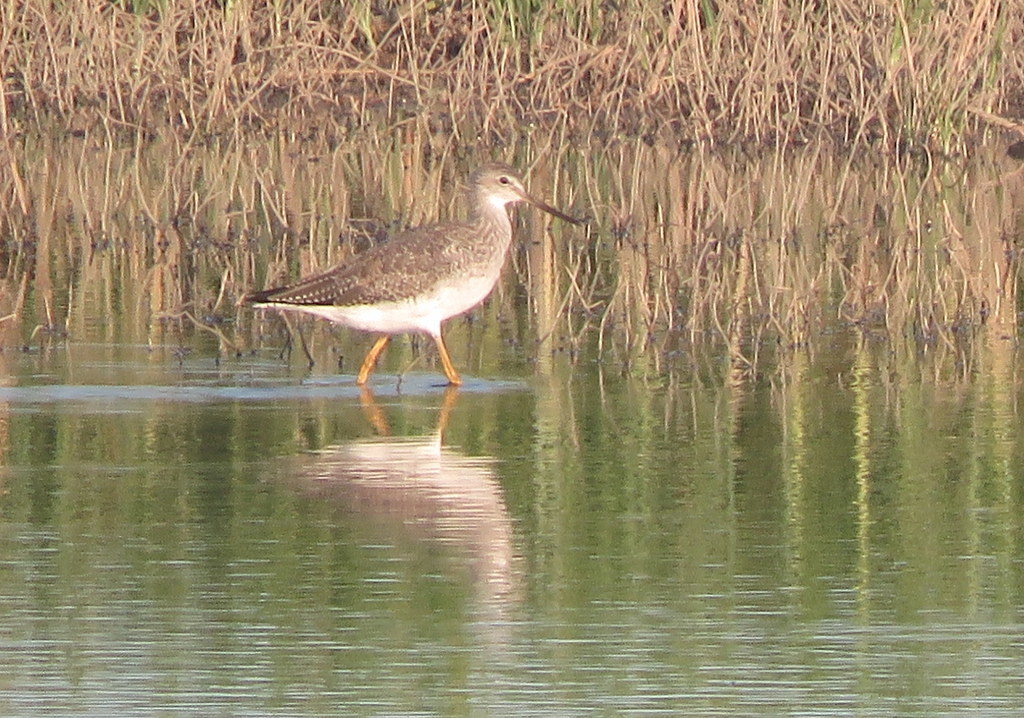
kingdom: Animalia
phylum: Chordata
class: Aves
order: Charadriiformes
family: Scolopacidae
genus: Tringa
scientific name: Tringa melanoleuca
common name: Greater yellowlegs
